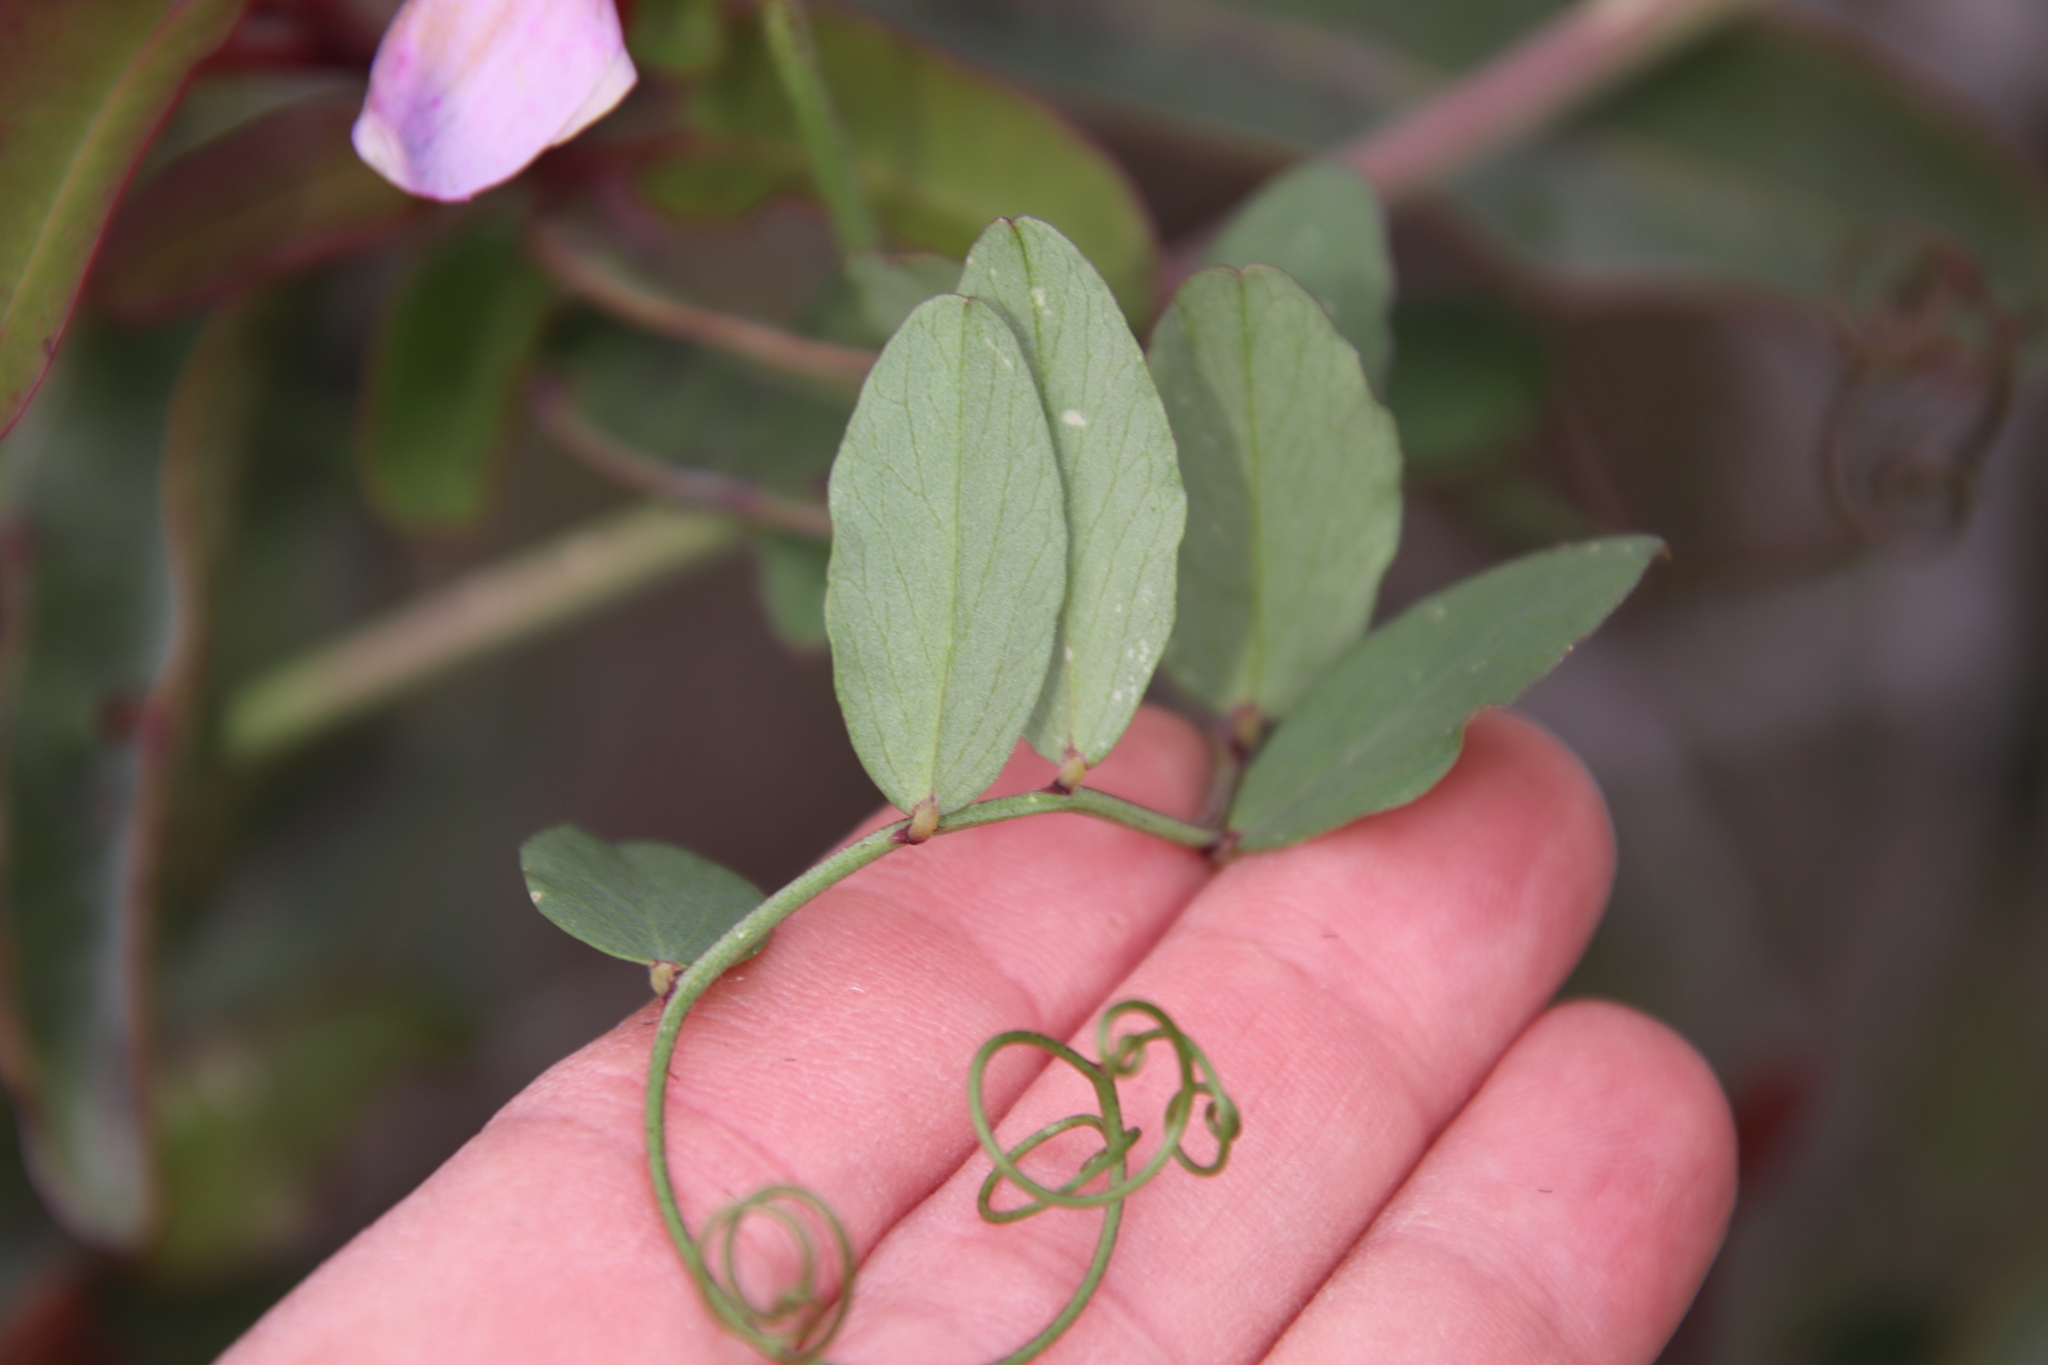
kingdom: Plantae
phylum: Tracheophyta
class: Magnoliopsida
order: Fabales
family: Fabaceae
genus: Lathyrus
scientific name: Lathyrus vestitus
